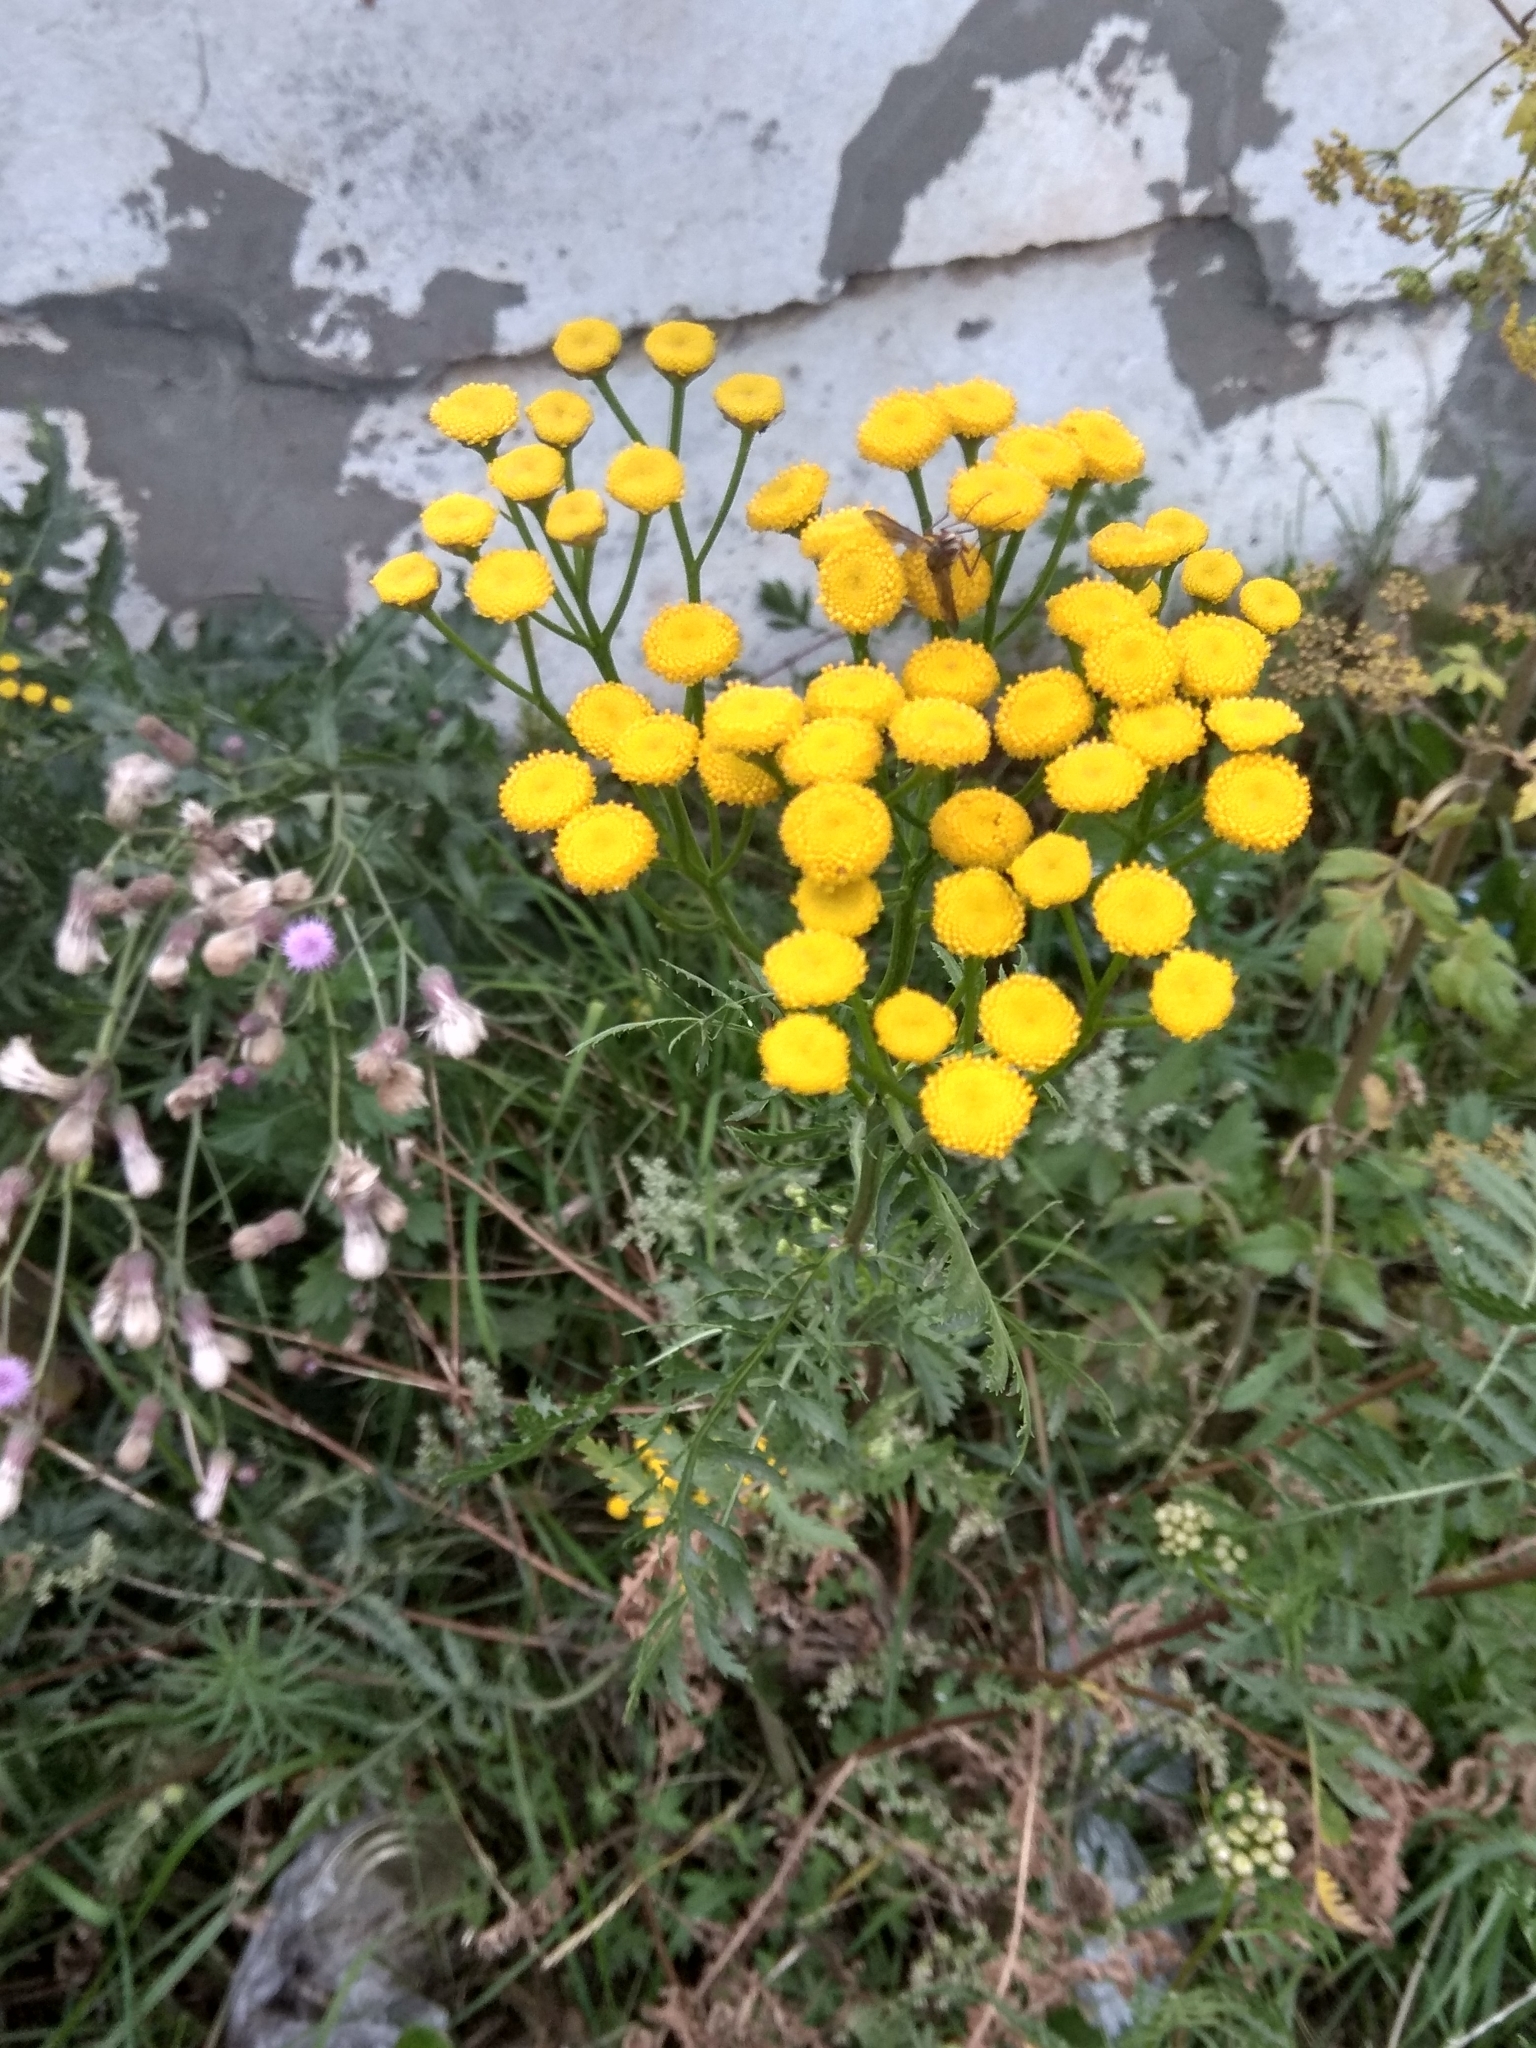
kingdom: Plantae
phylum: Tracheophyta
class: Magnoliopsida
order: Asterales
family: Asteraceae
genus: Tanacetum
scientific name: Tanacetum vulgare
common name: Common tansy
